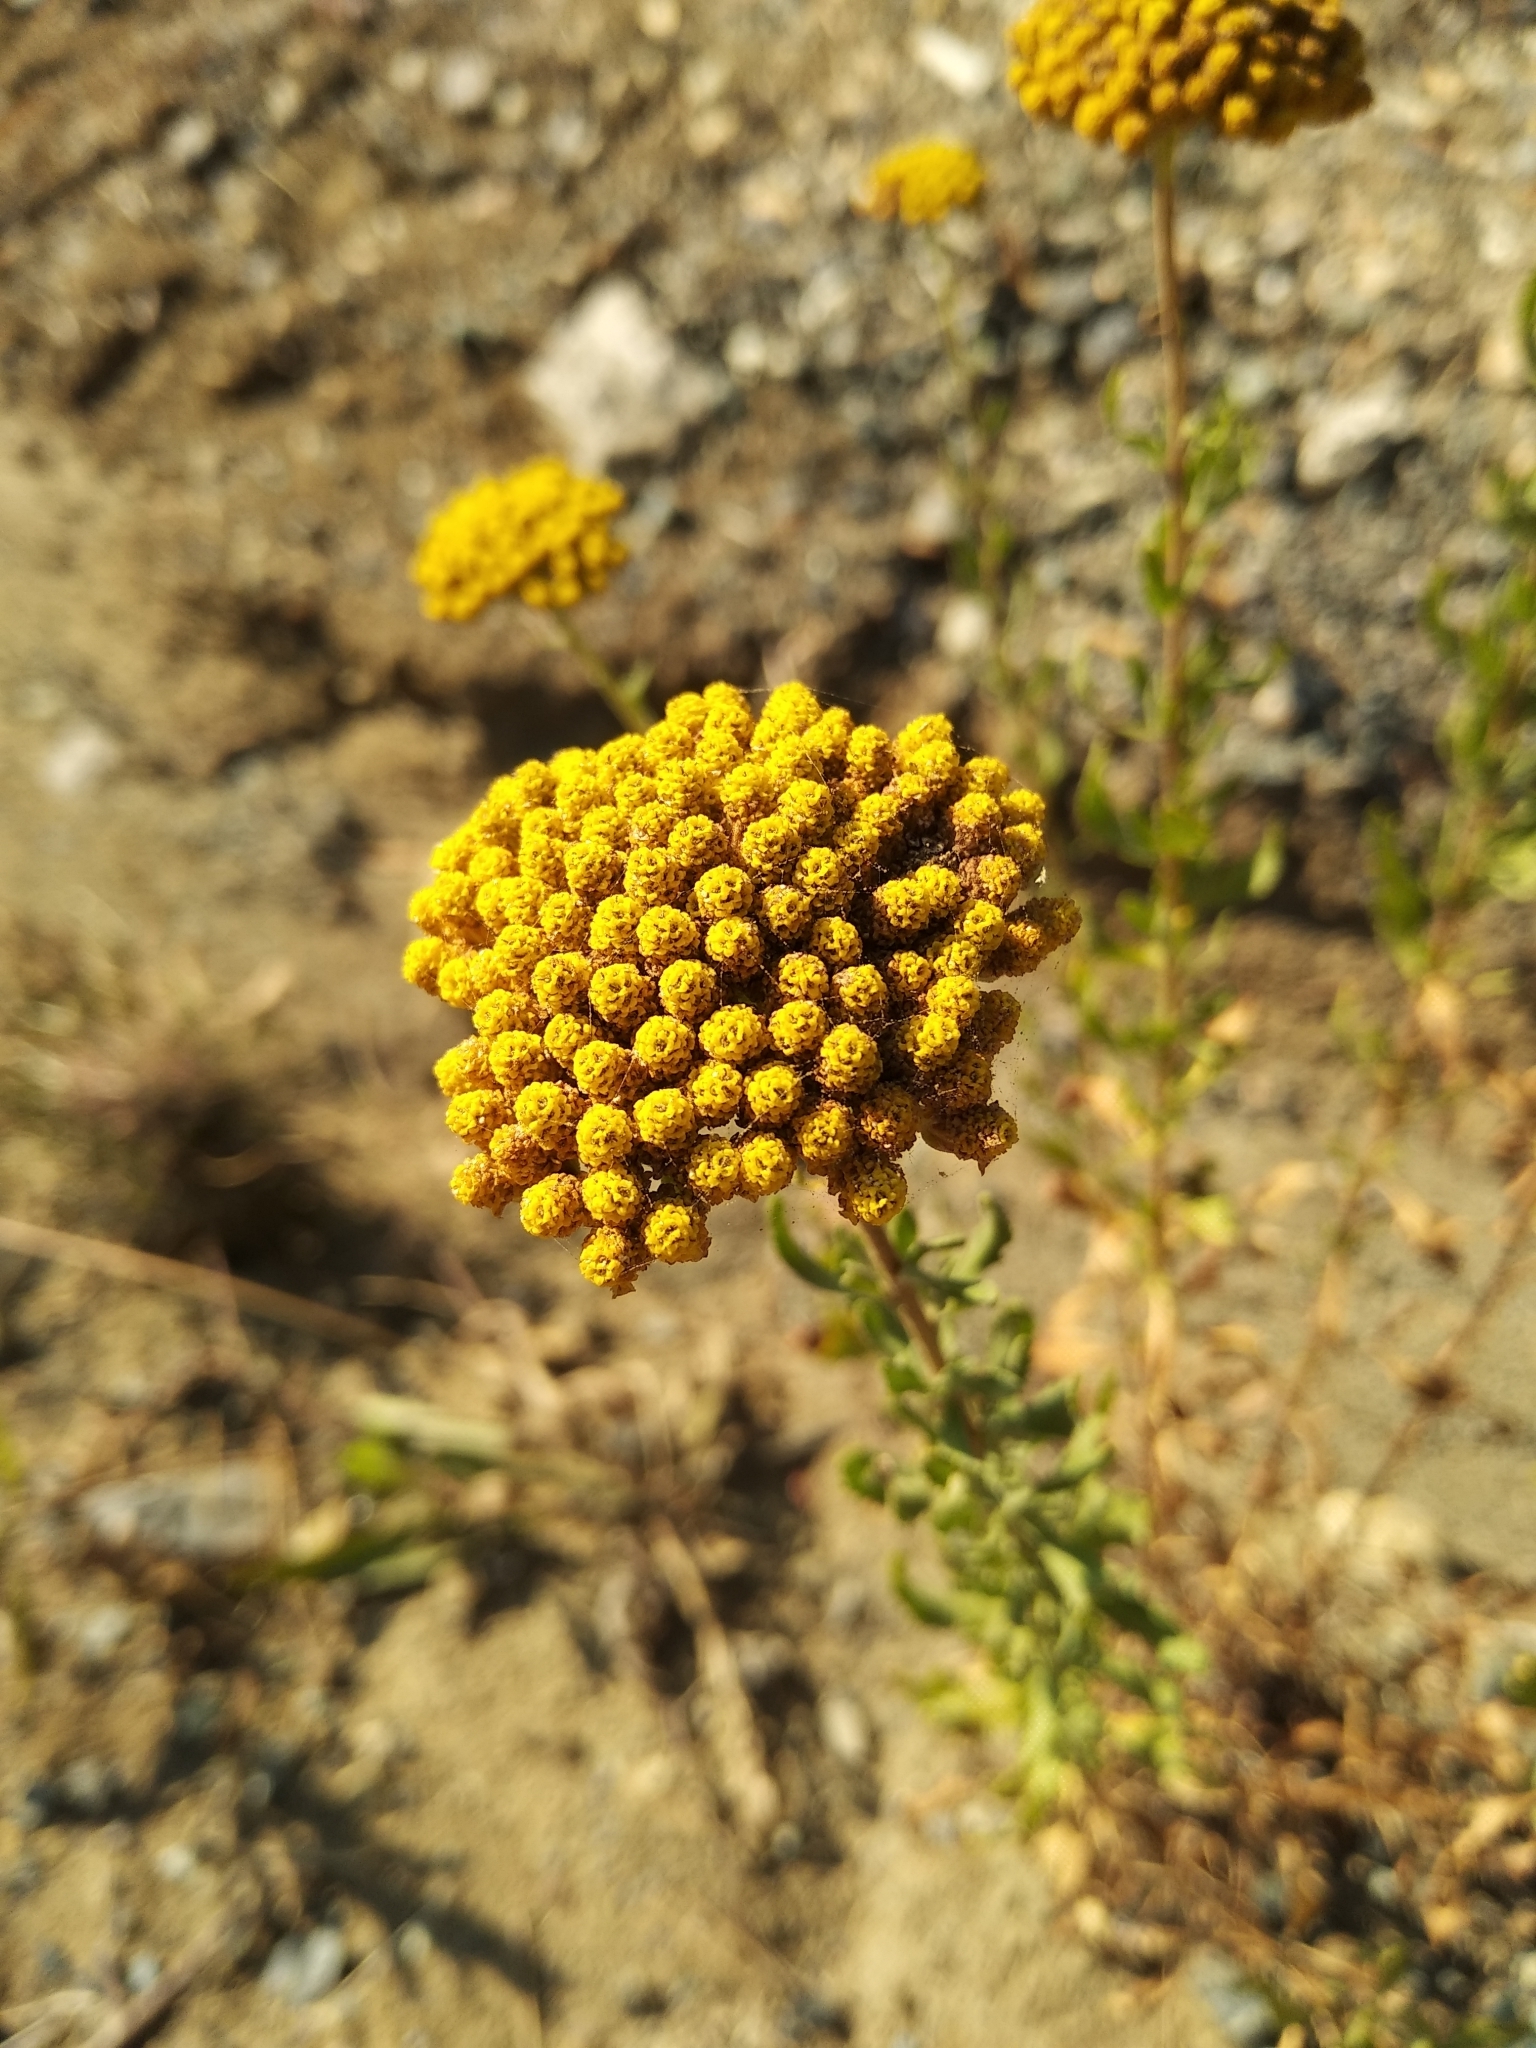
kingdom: Plantae
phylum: Tracheophyta
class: Magnoliopsida
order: Asterales
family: Asteraceae
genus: Achillea
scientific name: Achillea ageratum
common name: Sweet-nancy
